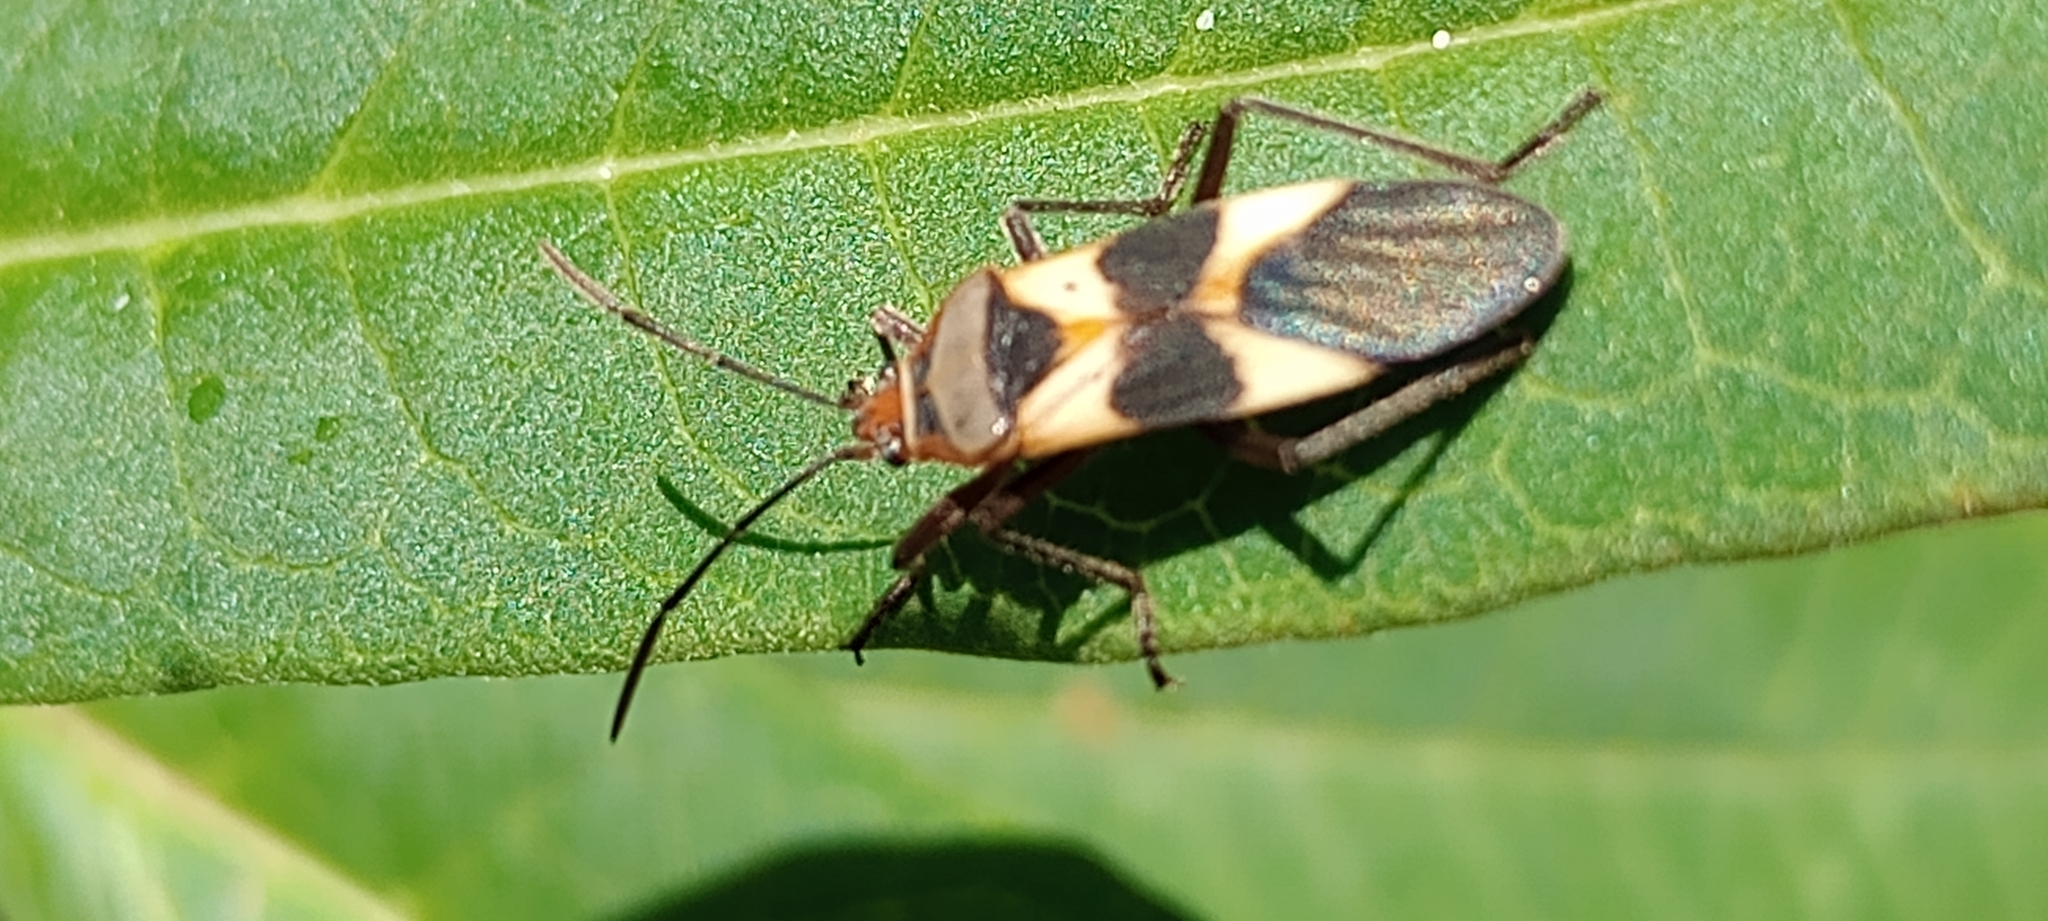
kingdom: Animalia
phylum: Arthropoda
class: Insecta
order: Hemiptera
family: Lygaeidae
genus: Oncopeltus
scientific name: Oncopeltus unifasciatellus
